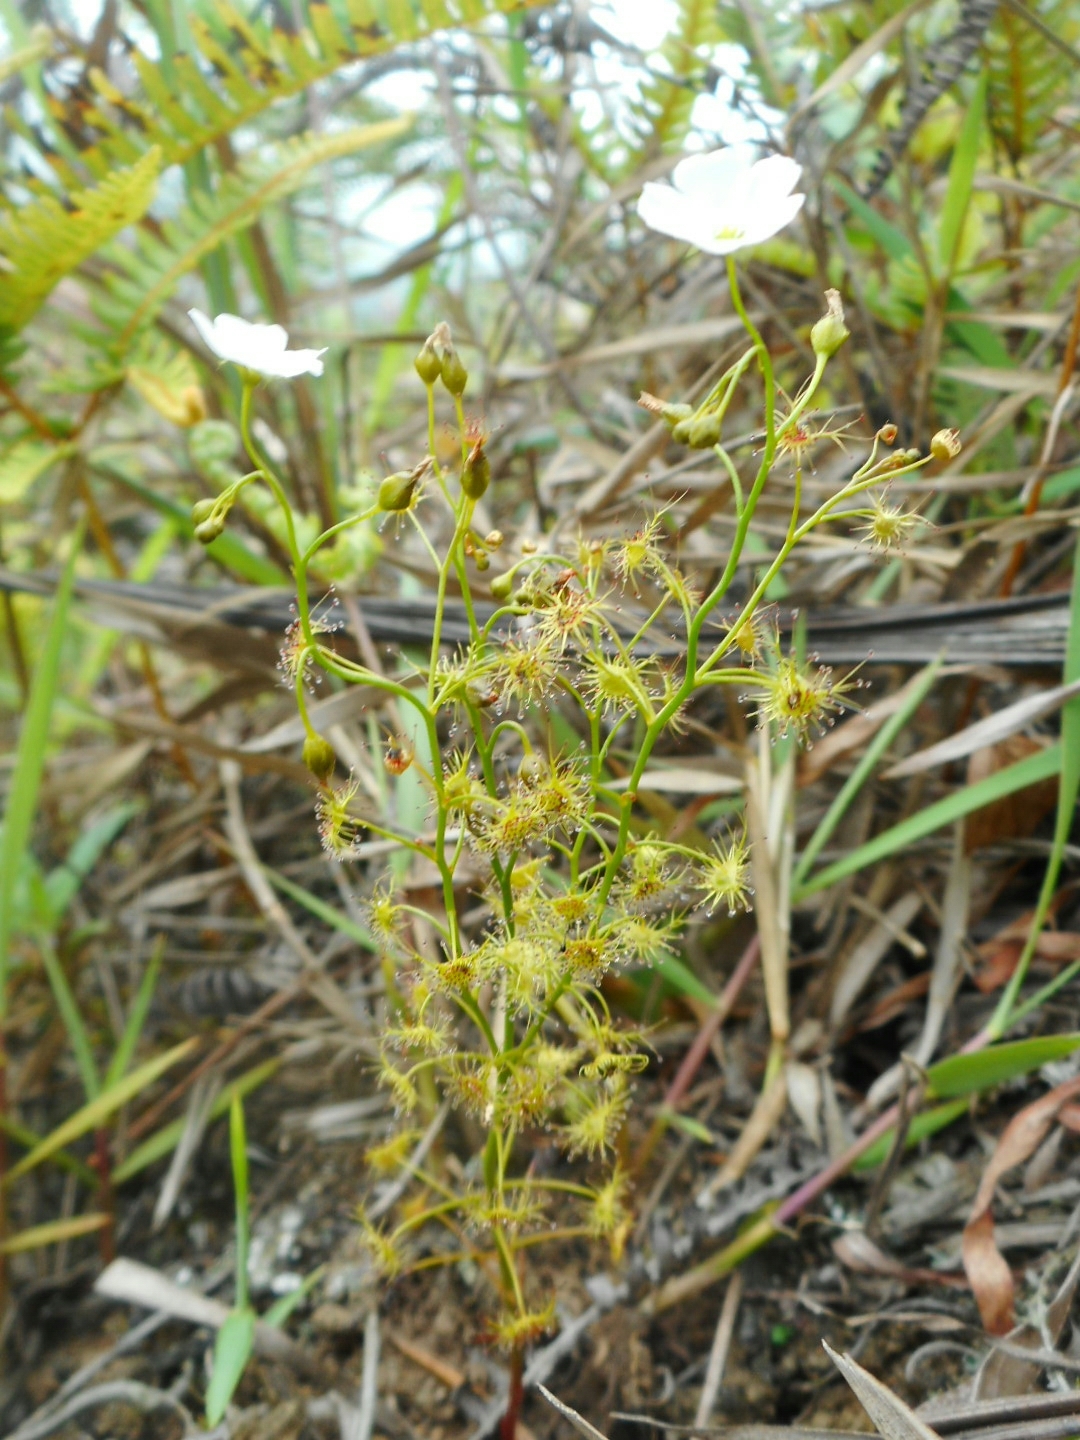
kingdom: Plantae
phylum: Tracheophyta
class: Magnoliopsida
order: Caryophyllales
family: Droseraceae
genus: Drosera
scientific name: Drosera peltata
